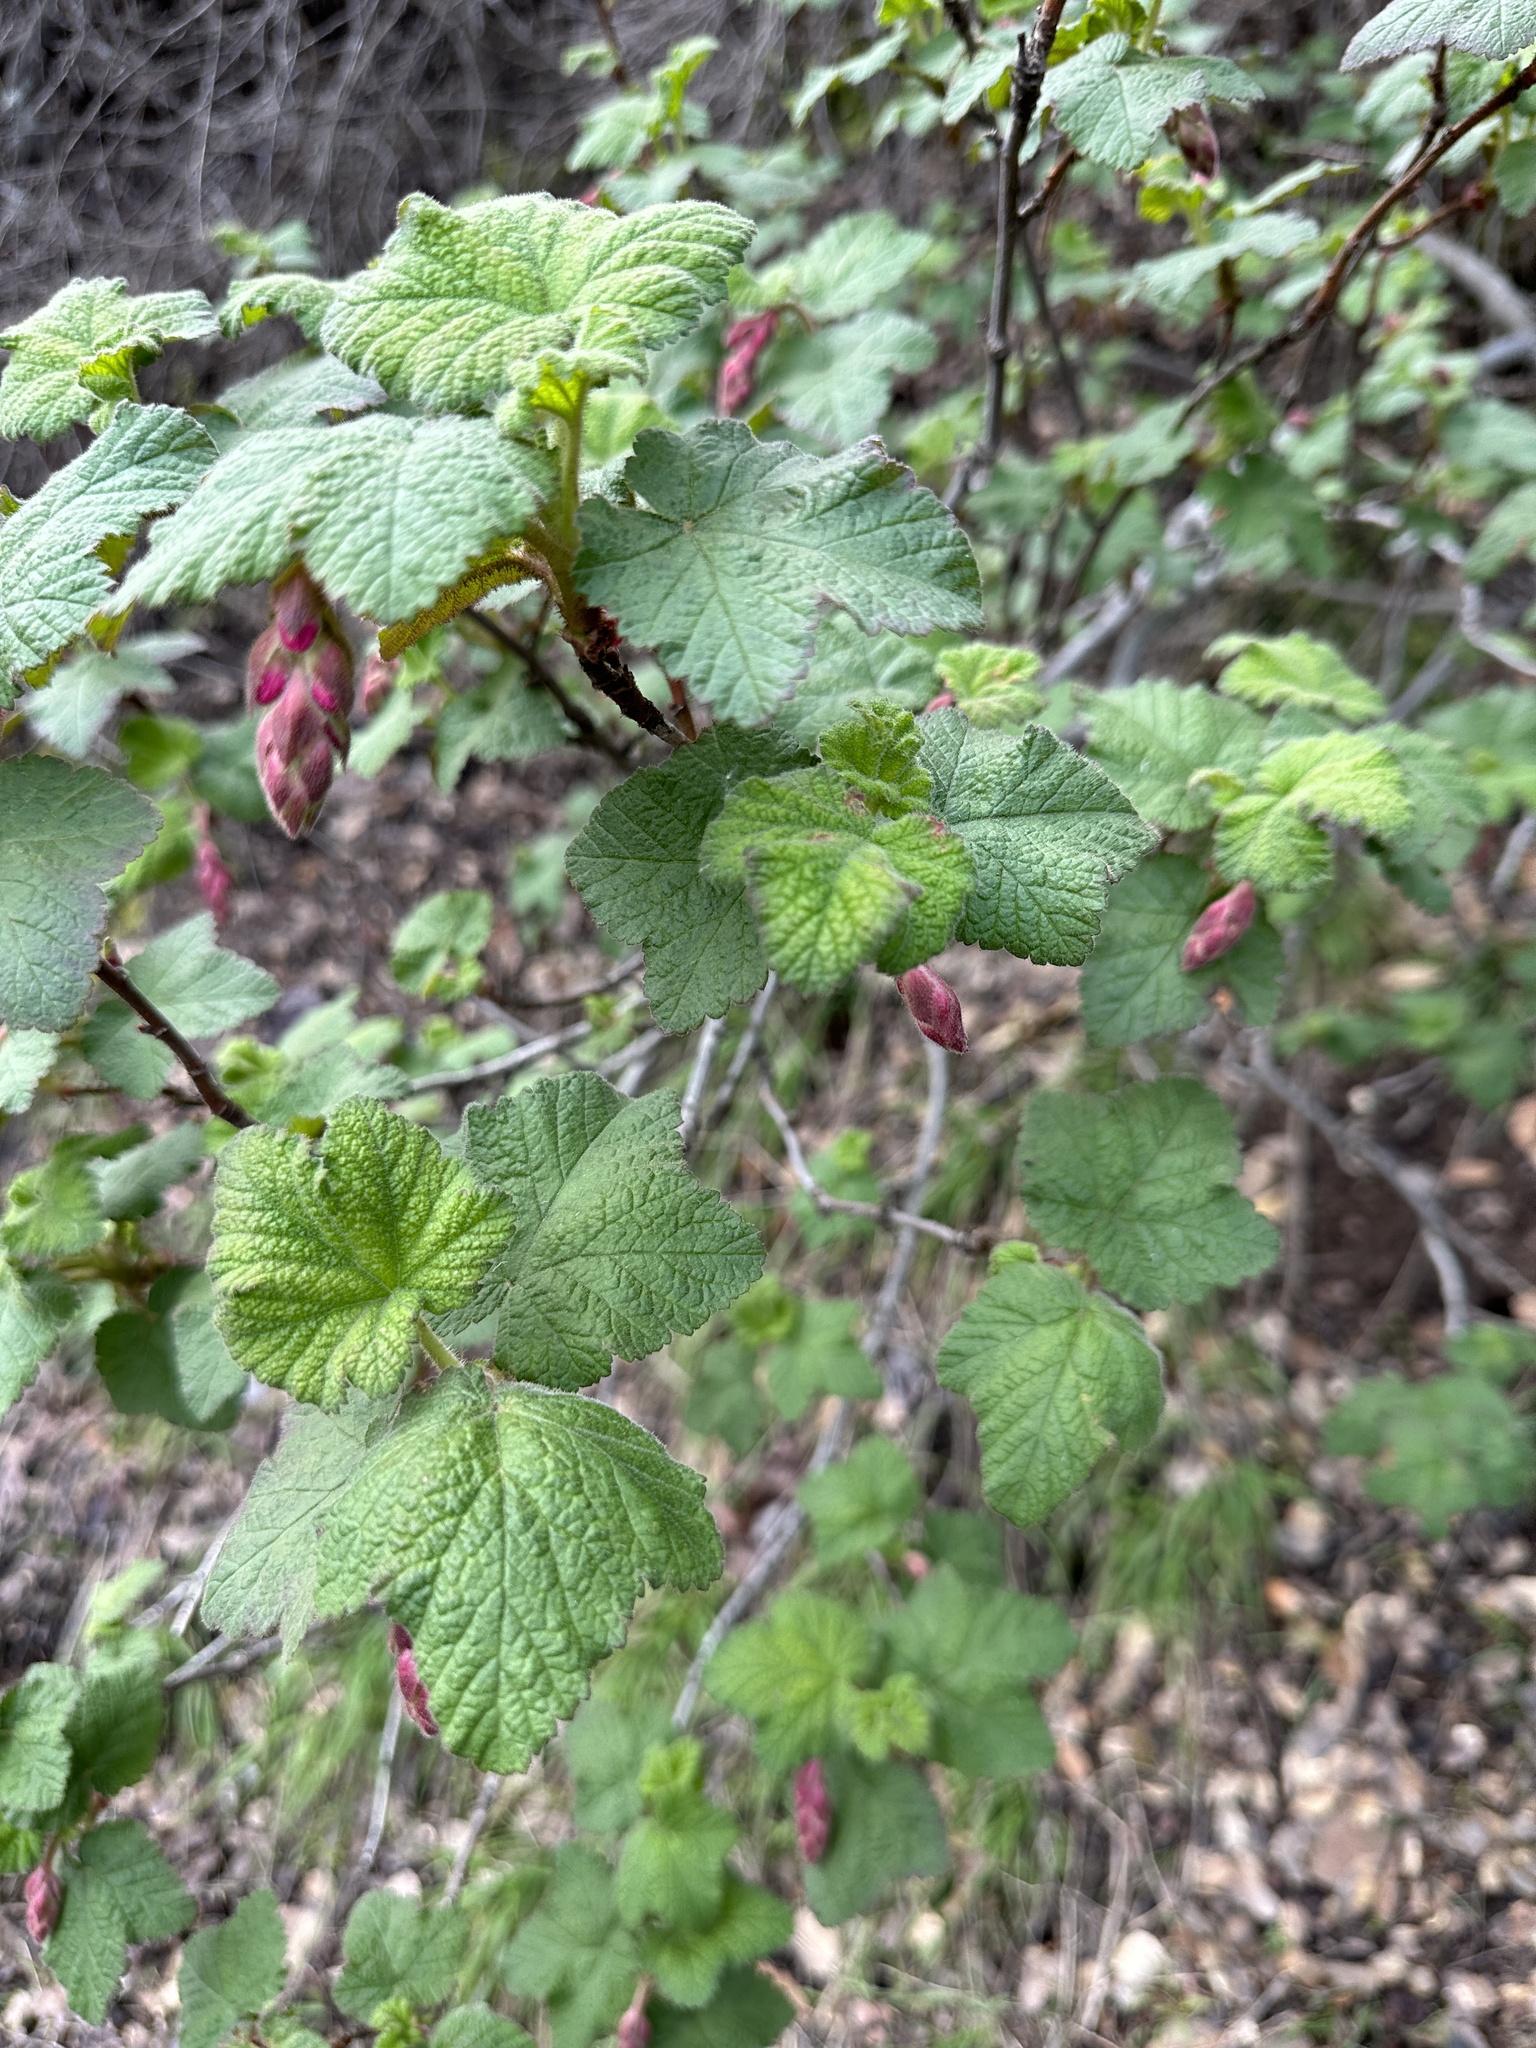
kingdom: Plantae
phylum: Tracheophyta
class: Magnoliopsida
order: Saxifragales
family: Grossulariaceae
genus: Ribes
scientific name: Ribes malvaceum
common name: Chaparral currant
